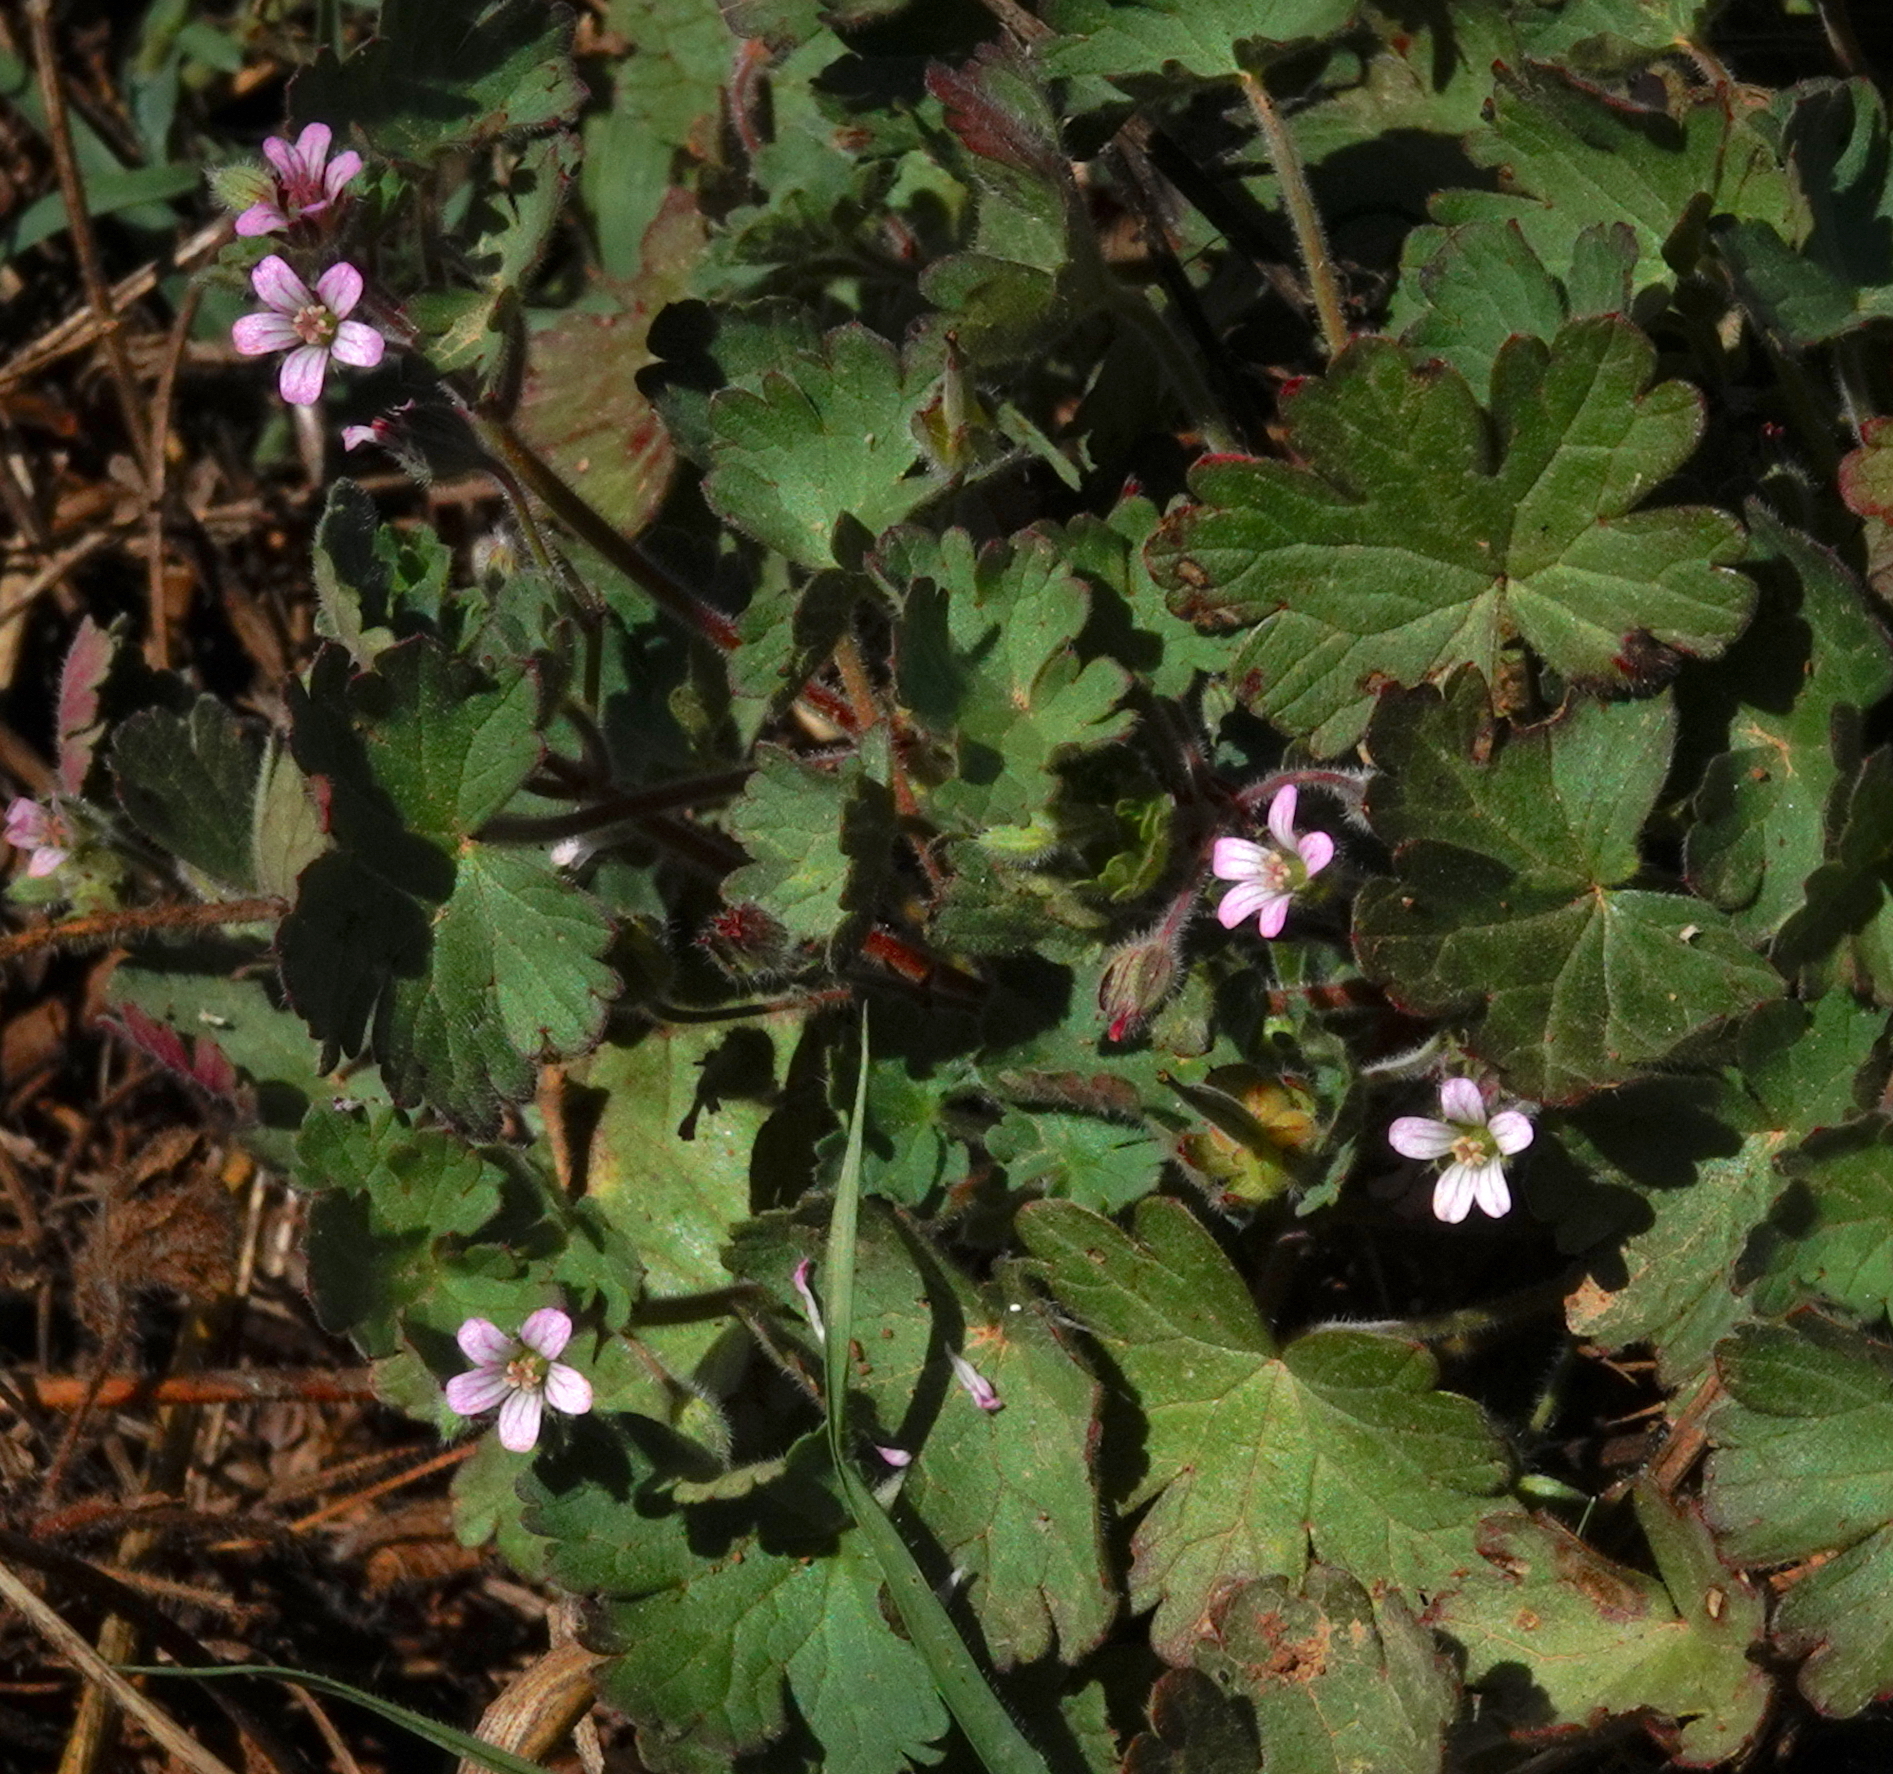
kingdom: Plantae
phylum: Tracheophyta
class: Magnoliopsida
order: Geraniales
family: Geraniaceae
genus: Geranium
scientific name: Geranium rotundifolium
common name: Round-leaved crane's-bill
